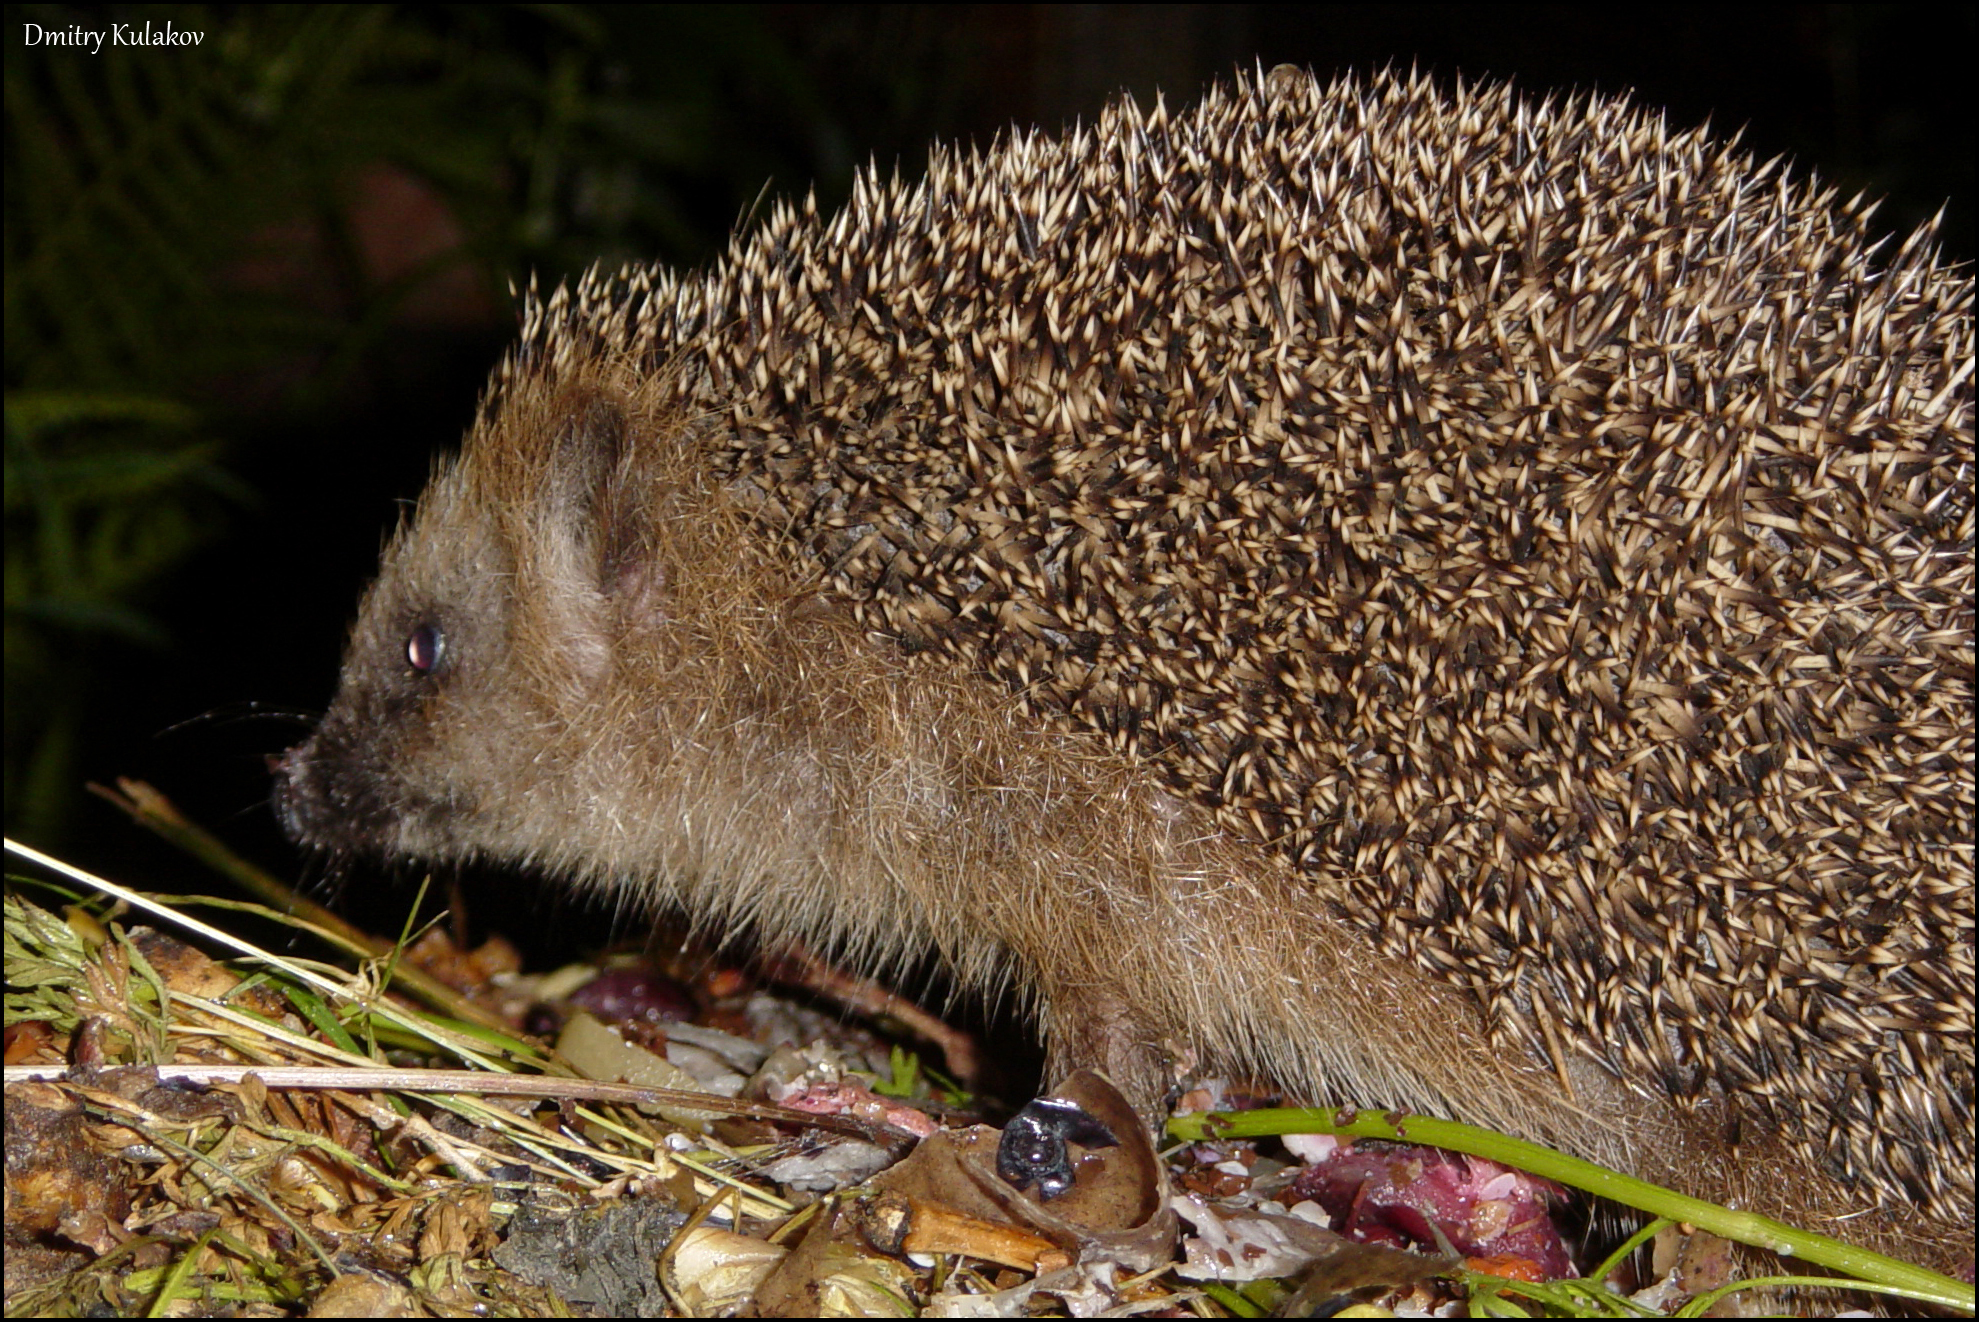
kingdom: Animalia
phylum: Chordata
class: Mammalia
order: Erinaceomorpha
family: Erinaceidae
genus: Erinaceus
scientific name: Erinaceus europaeus
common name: West european hedgehog
